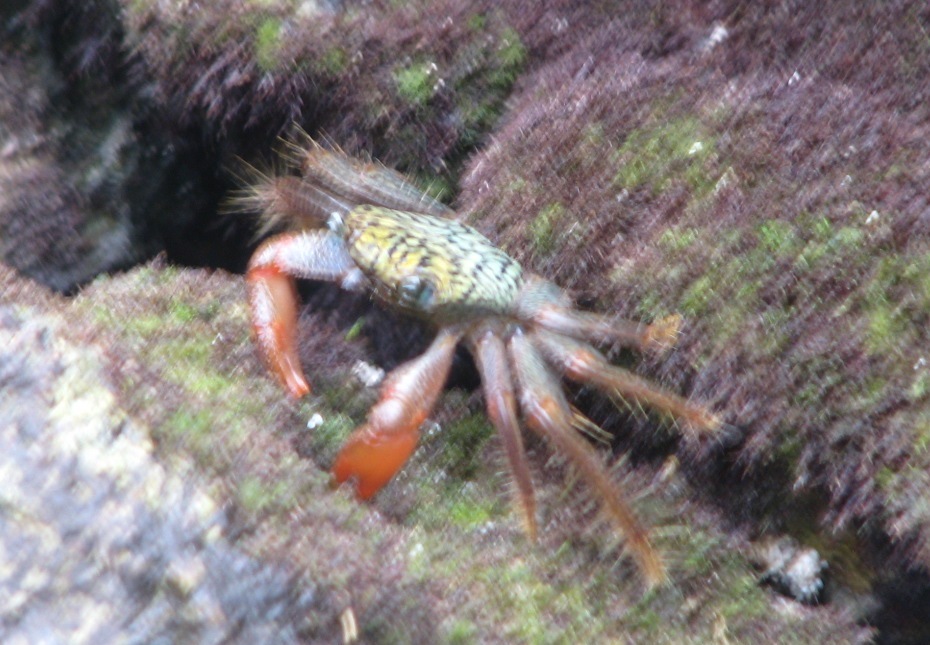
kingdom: Animalia
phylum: Arthropoda
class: Malacostraca
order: Decapoda
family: Grapsidae
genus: Geograpsus
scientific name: Geograpsus lividus
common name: Variegate shore crab
